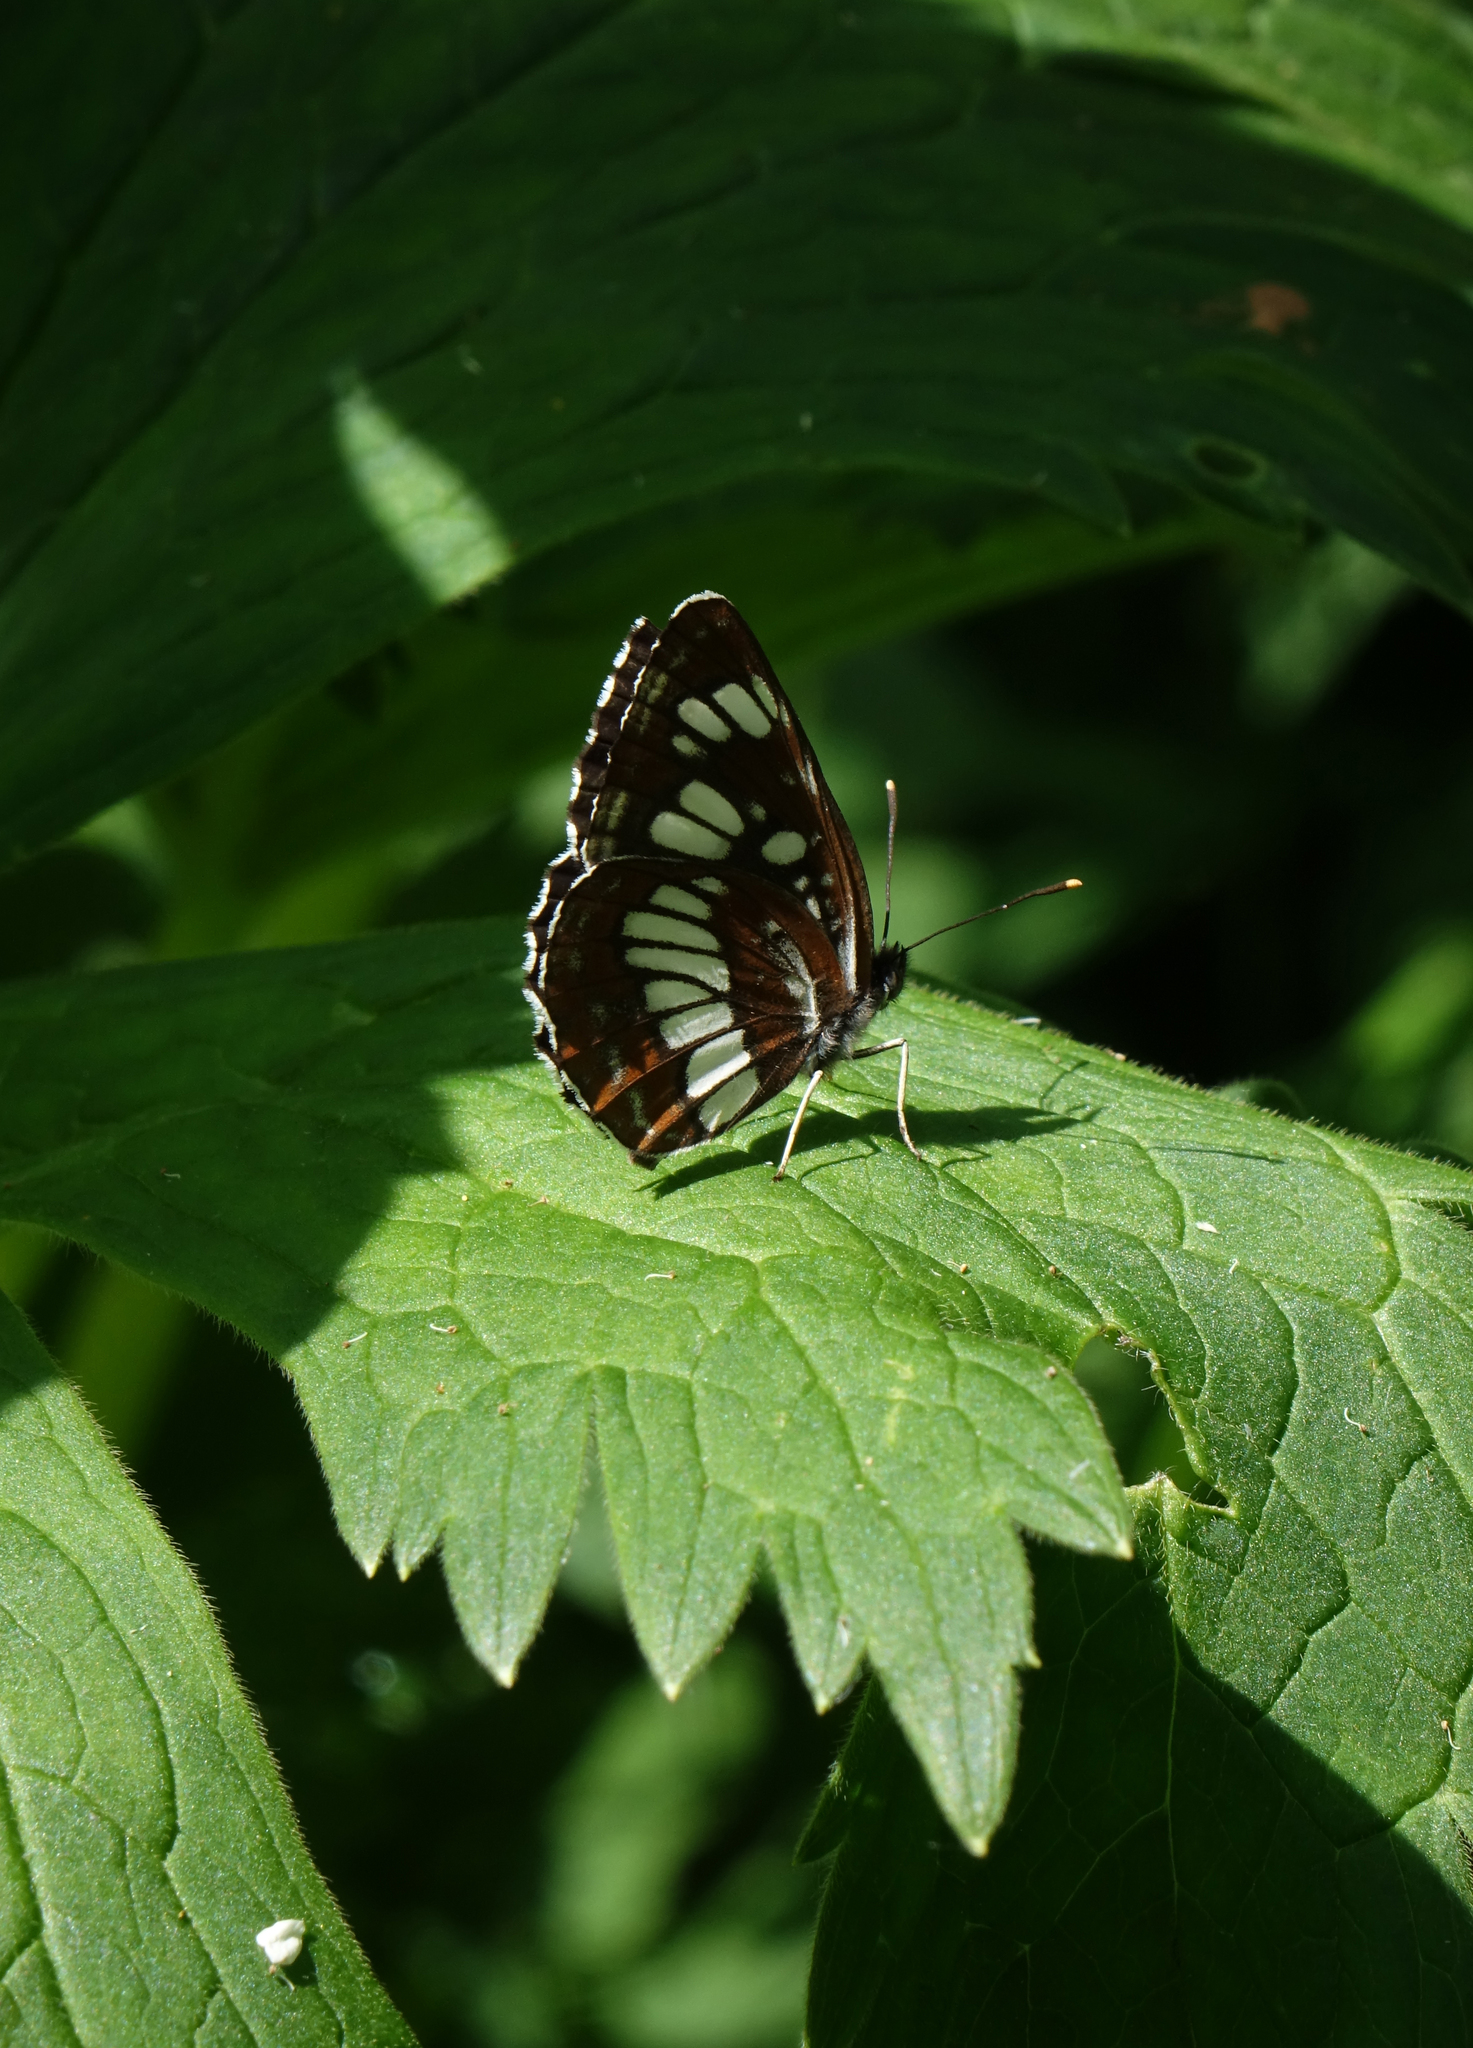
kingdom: Animalia
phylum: Arthropoda
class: Insecta
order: Lepidoptera
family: Nymphalidae
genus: Neptis
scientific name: Neptis rivularis
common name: Hungarian glider
